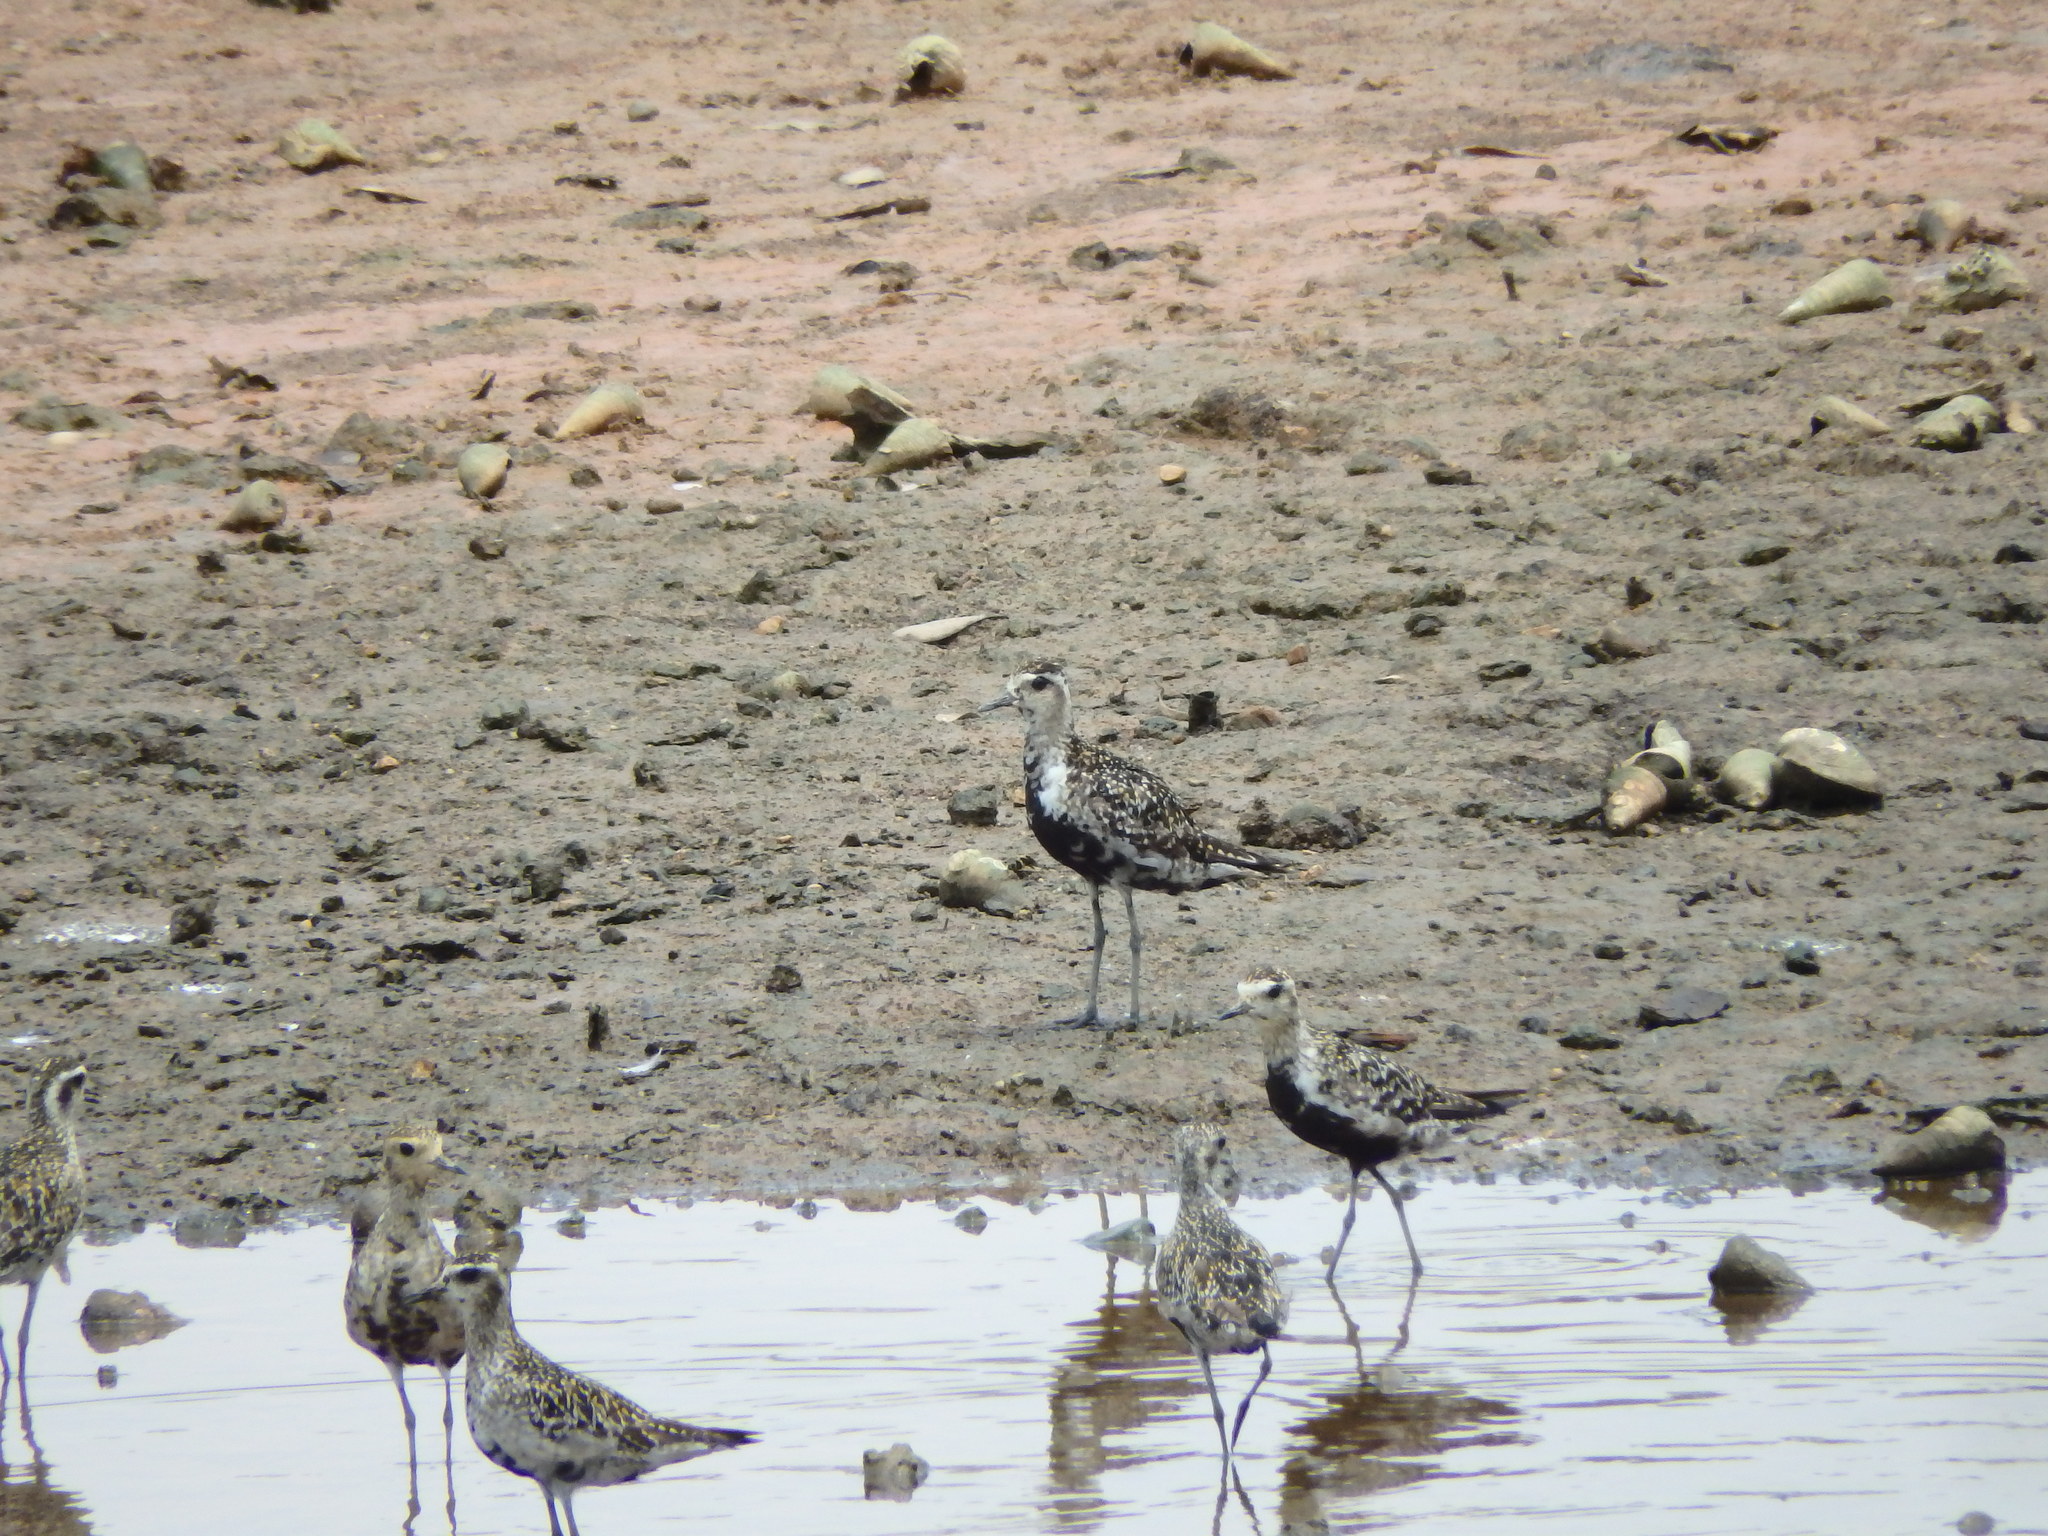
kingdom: Animalia
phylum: Chordata
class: Aves
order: Charadriiformes
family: Charadriidae
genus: Pluvialis
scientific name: Pluvialis fulva
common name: Pacific golden plover
